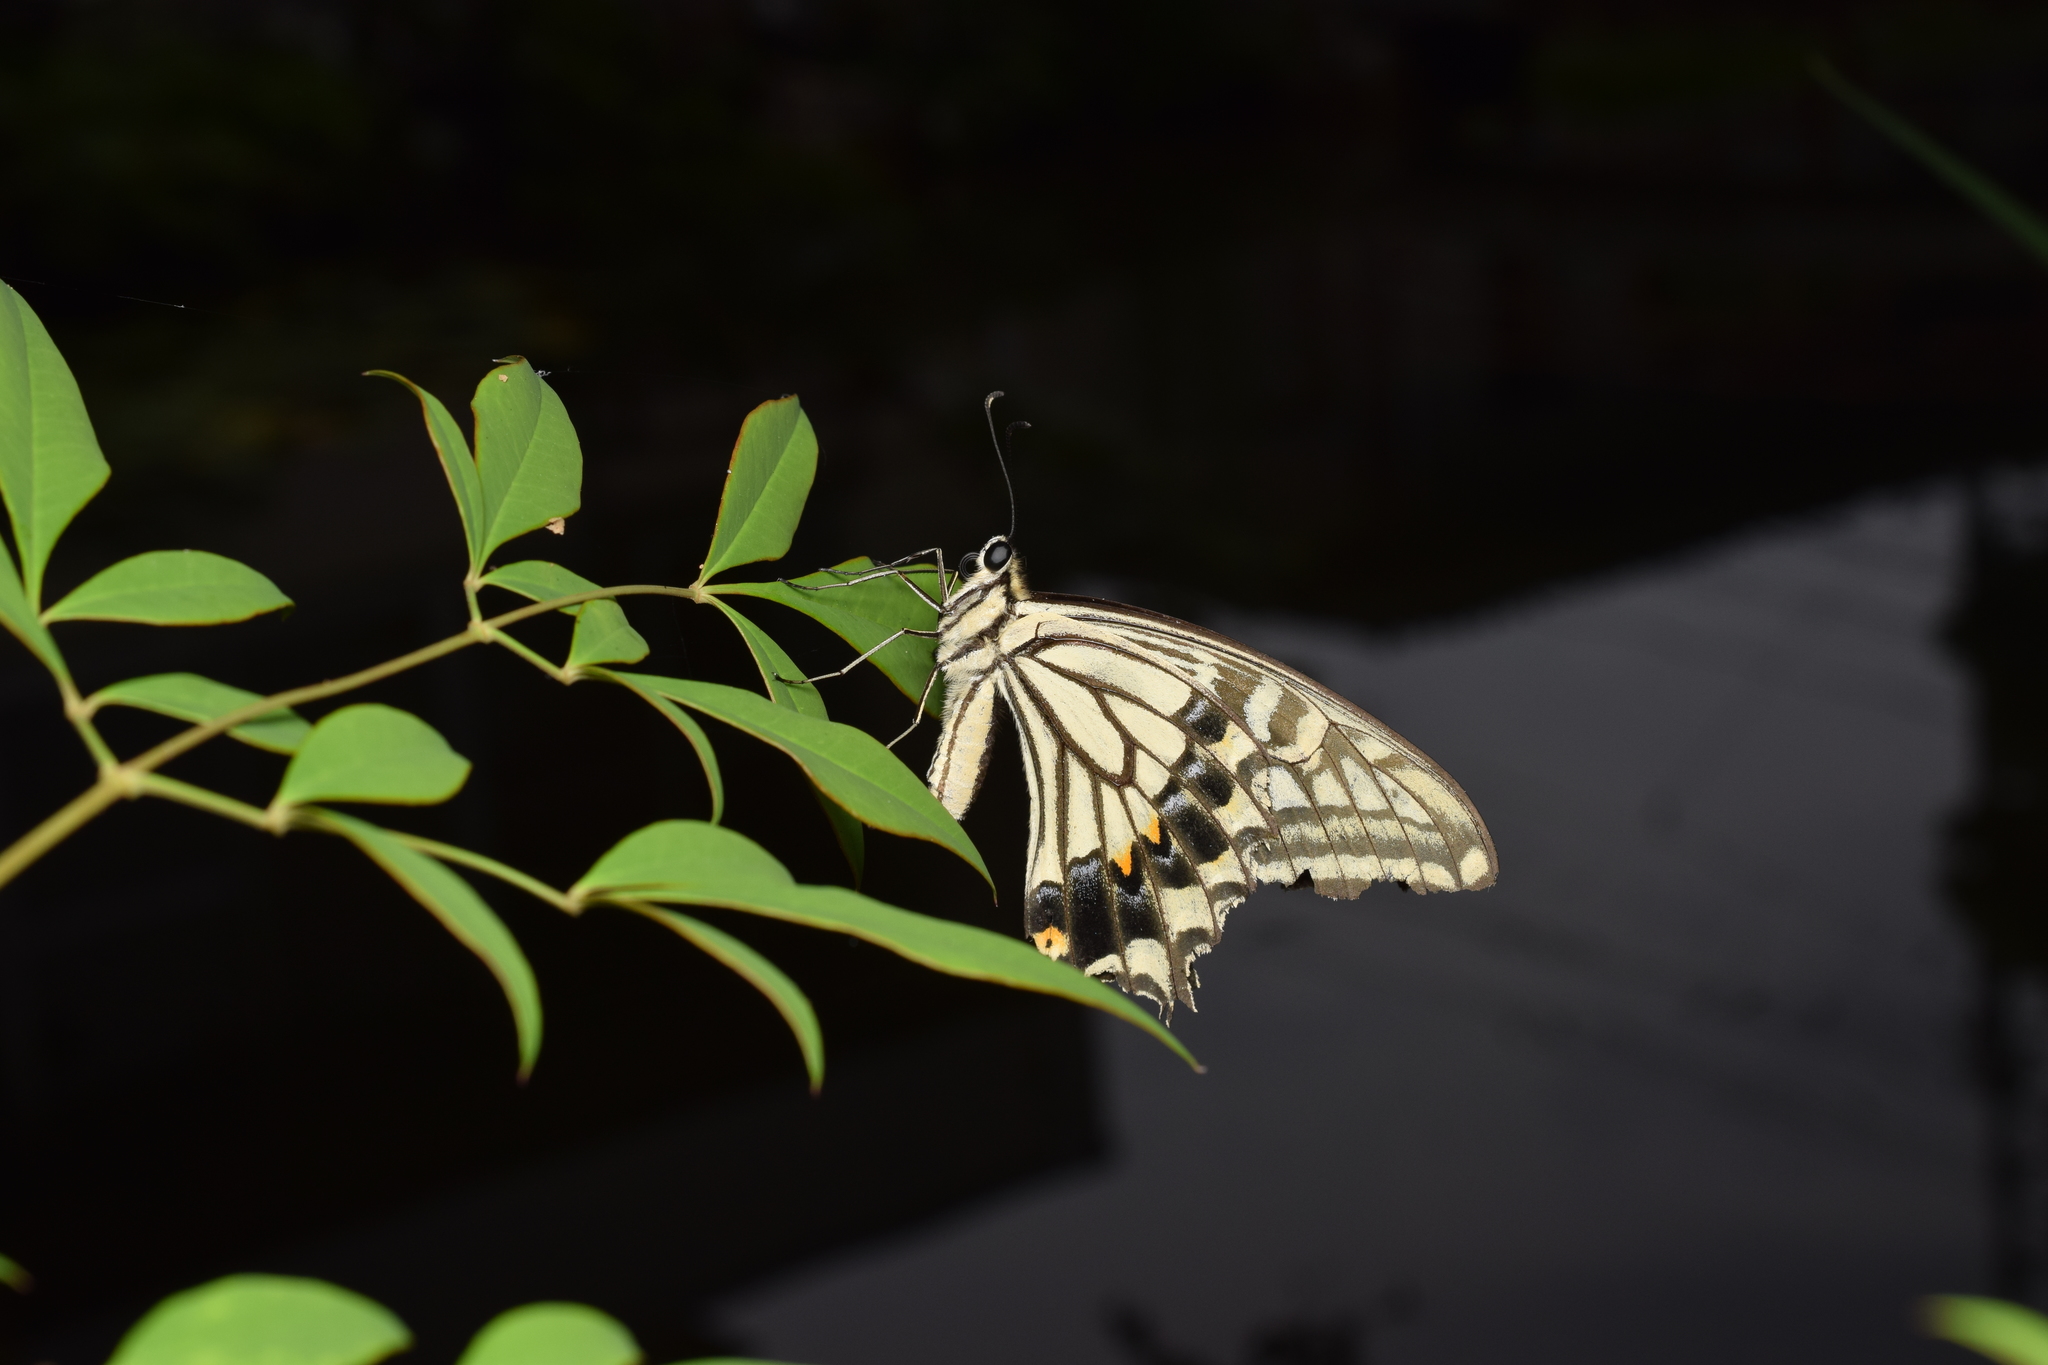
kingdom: Animalia
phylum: Arthropoda
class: Insecta
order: Lepidoptera
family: Papilionidae
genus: Papilio
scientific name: Papilio xuthus
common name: Asian swallowtail
